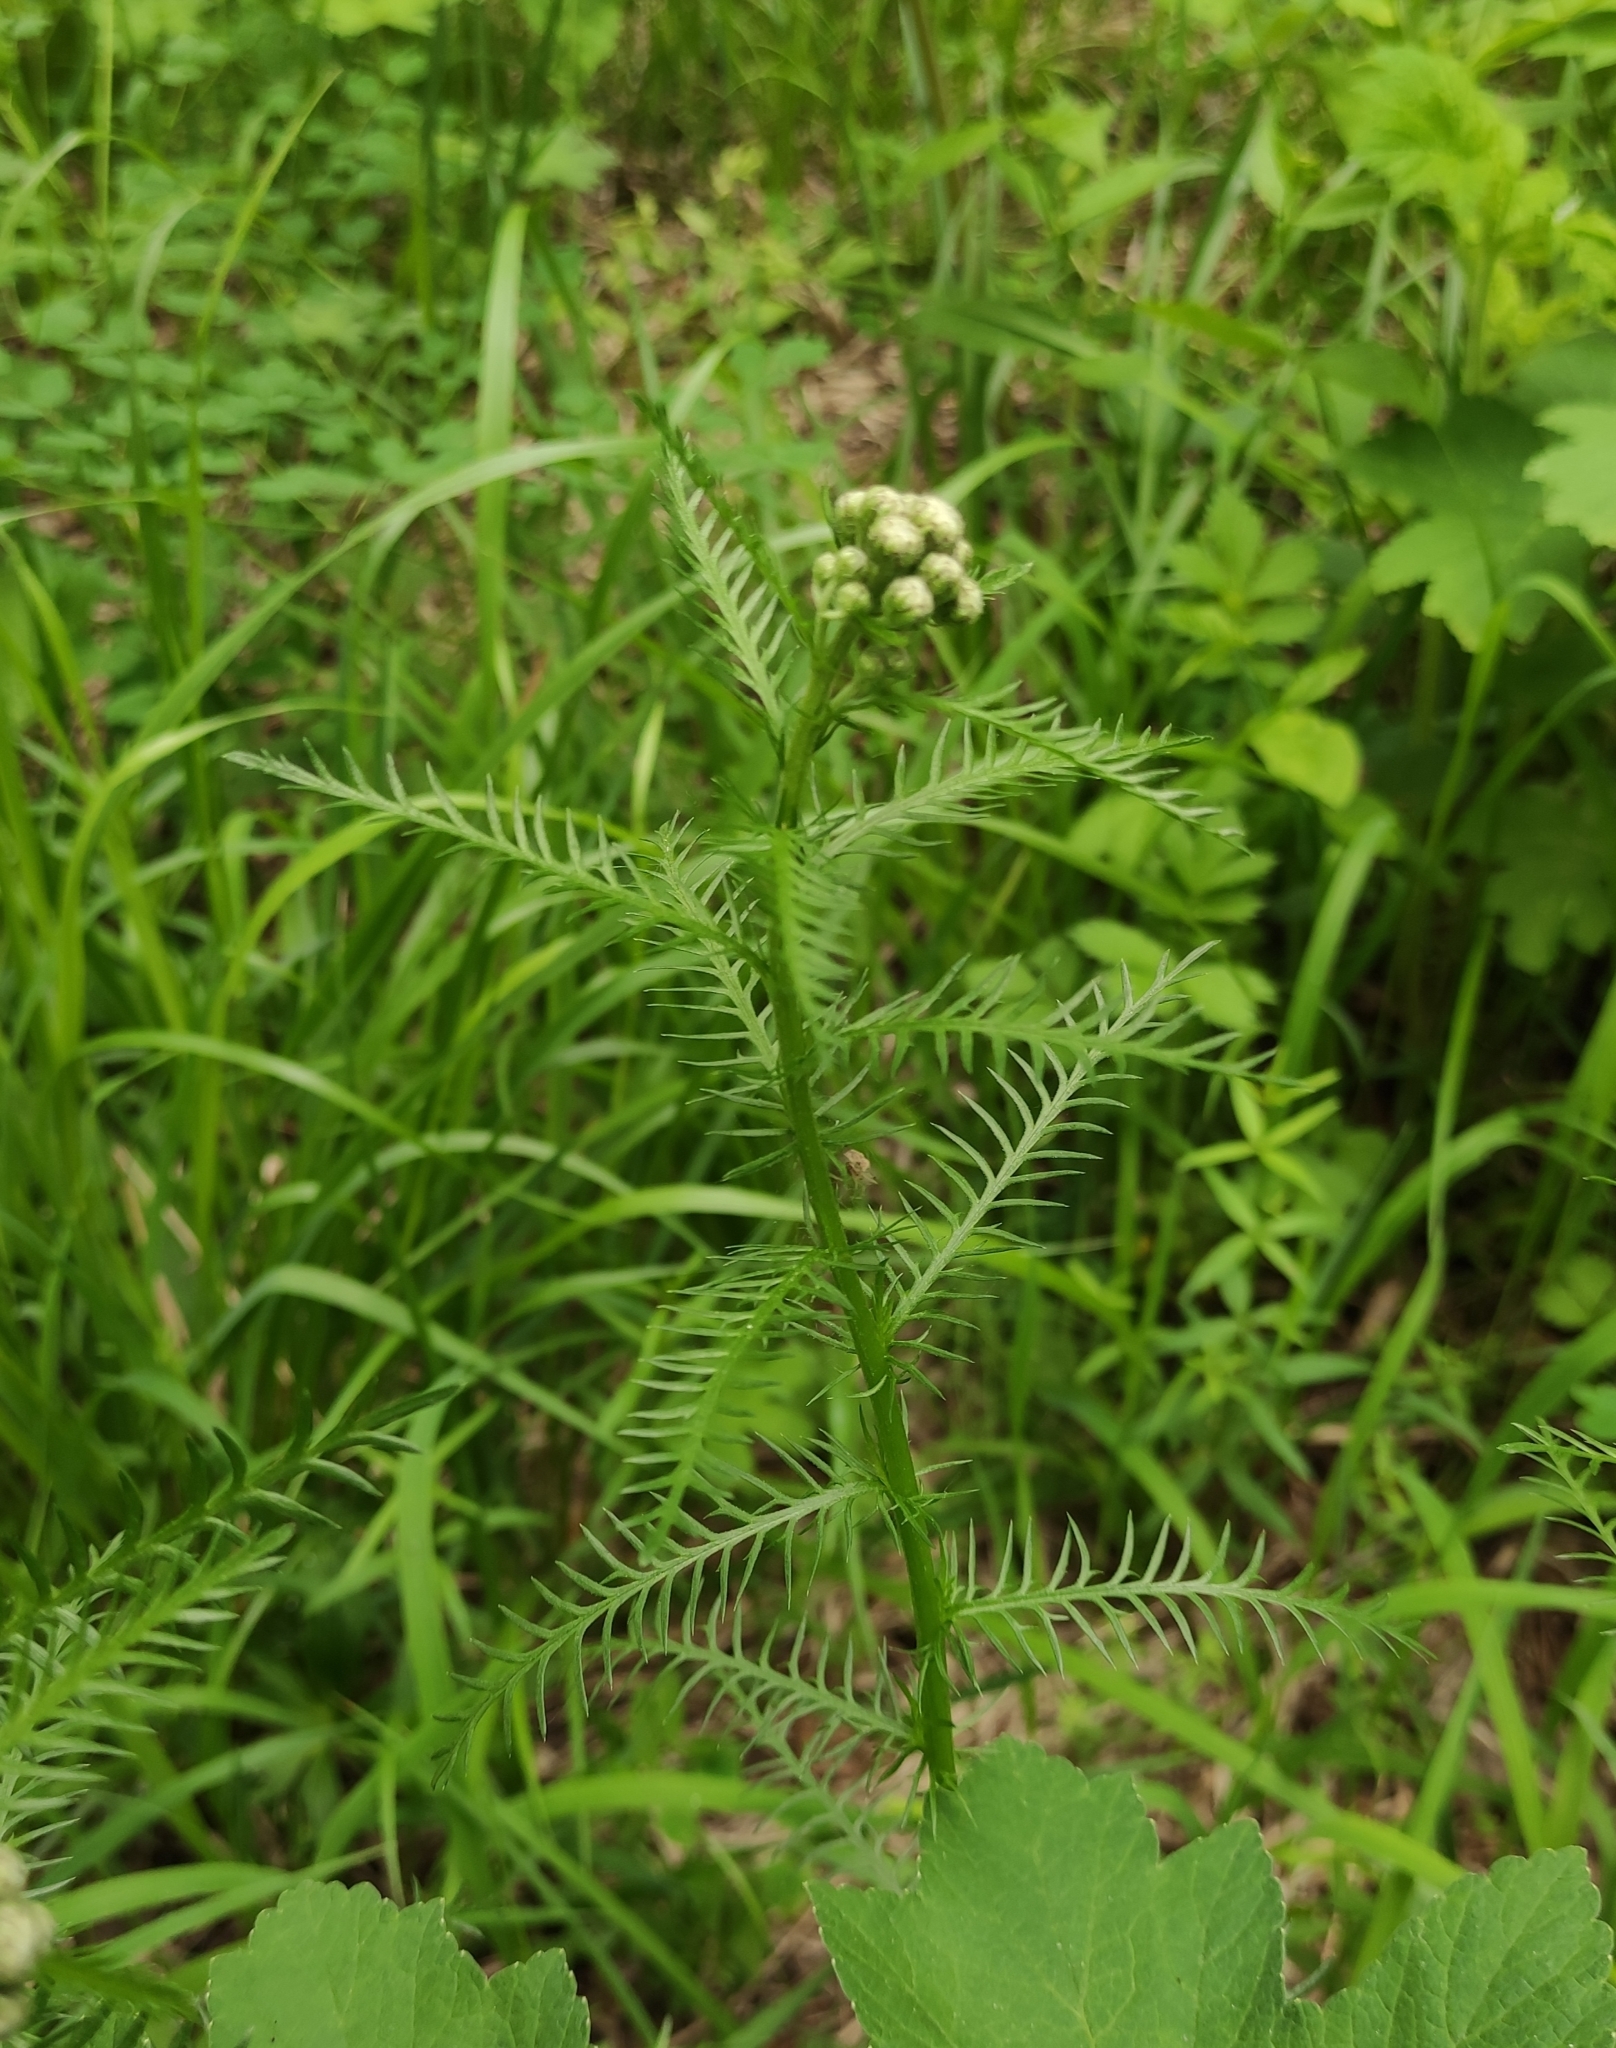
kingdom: Plantae
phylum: Tracheophyta
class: Magnoliopsida
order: Asterales
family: Asteraceae
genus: Achillea
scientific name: Achillea impatiens
